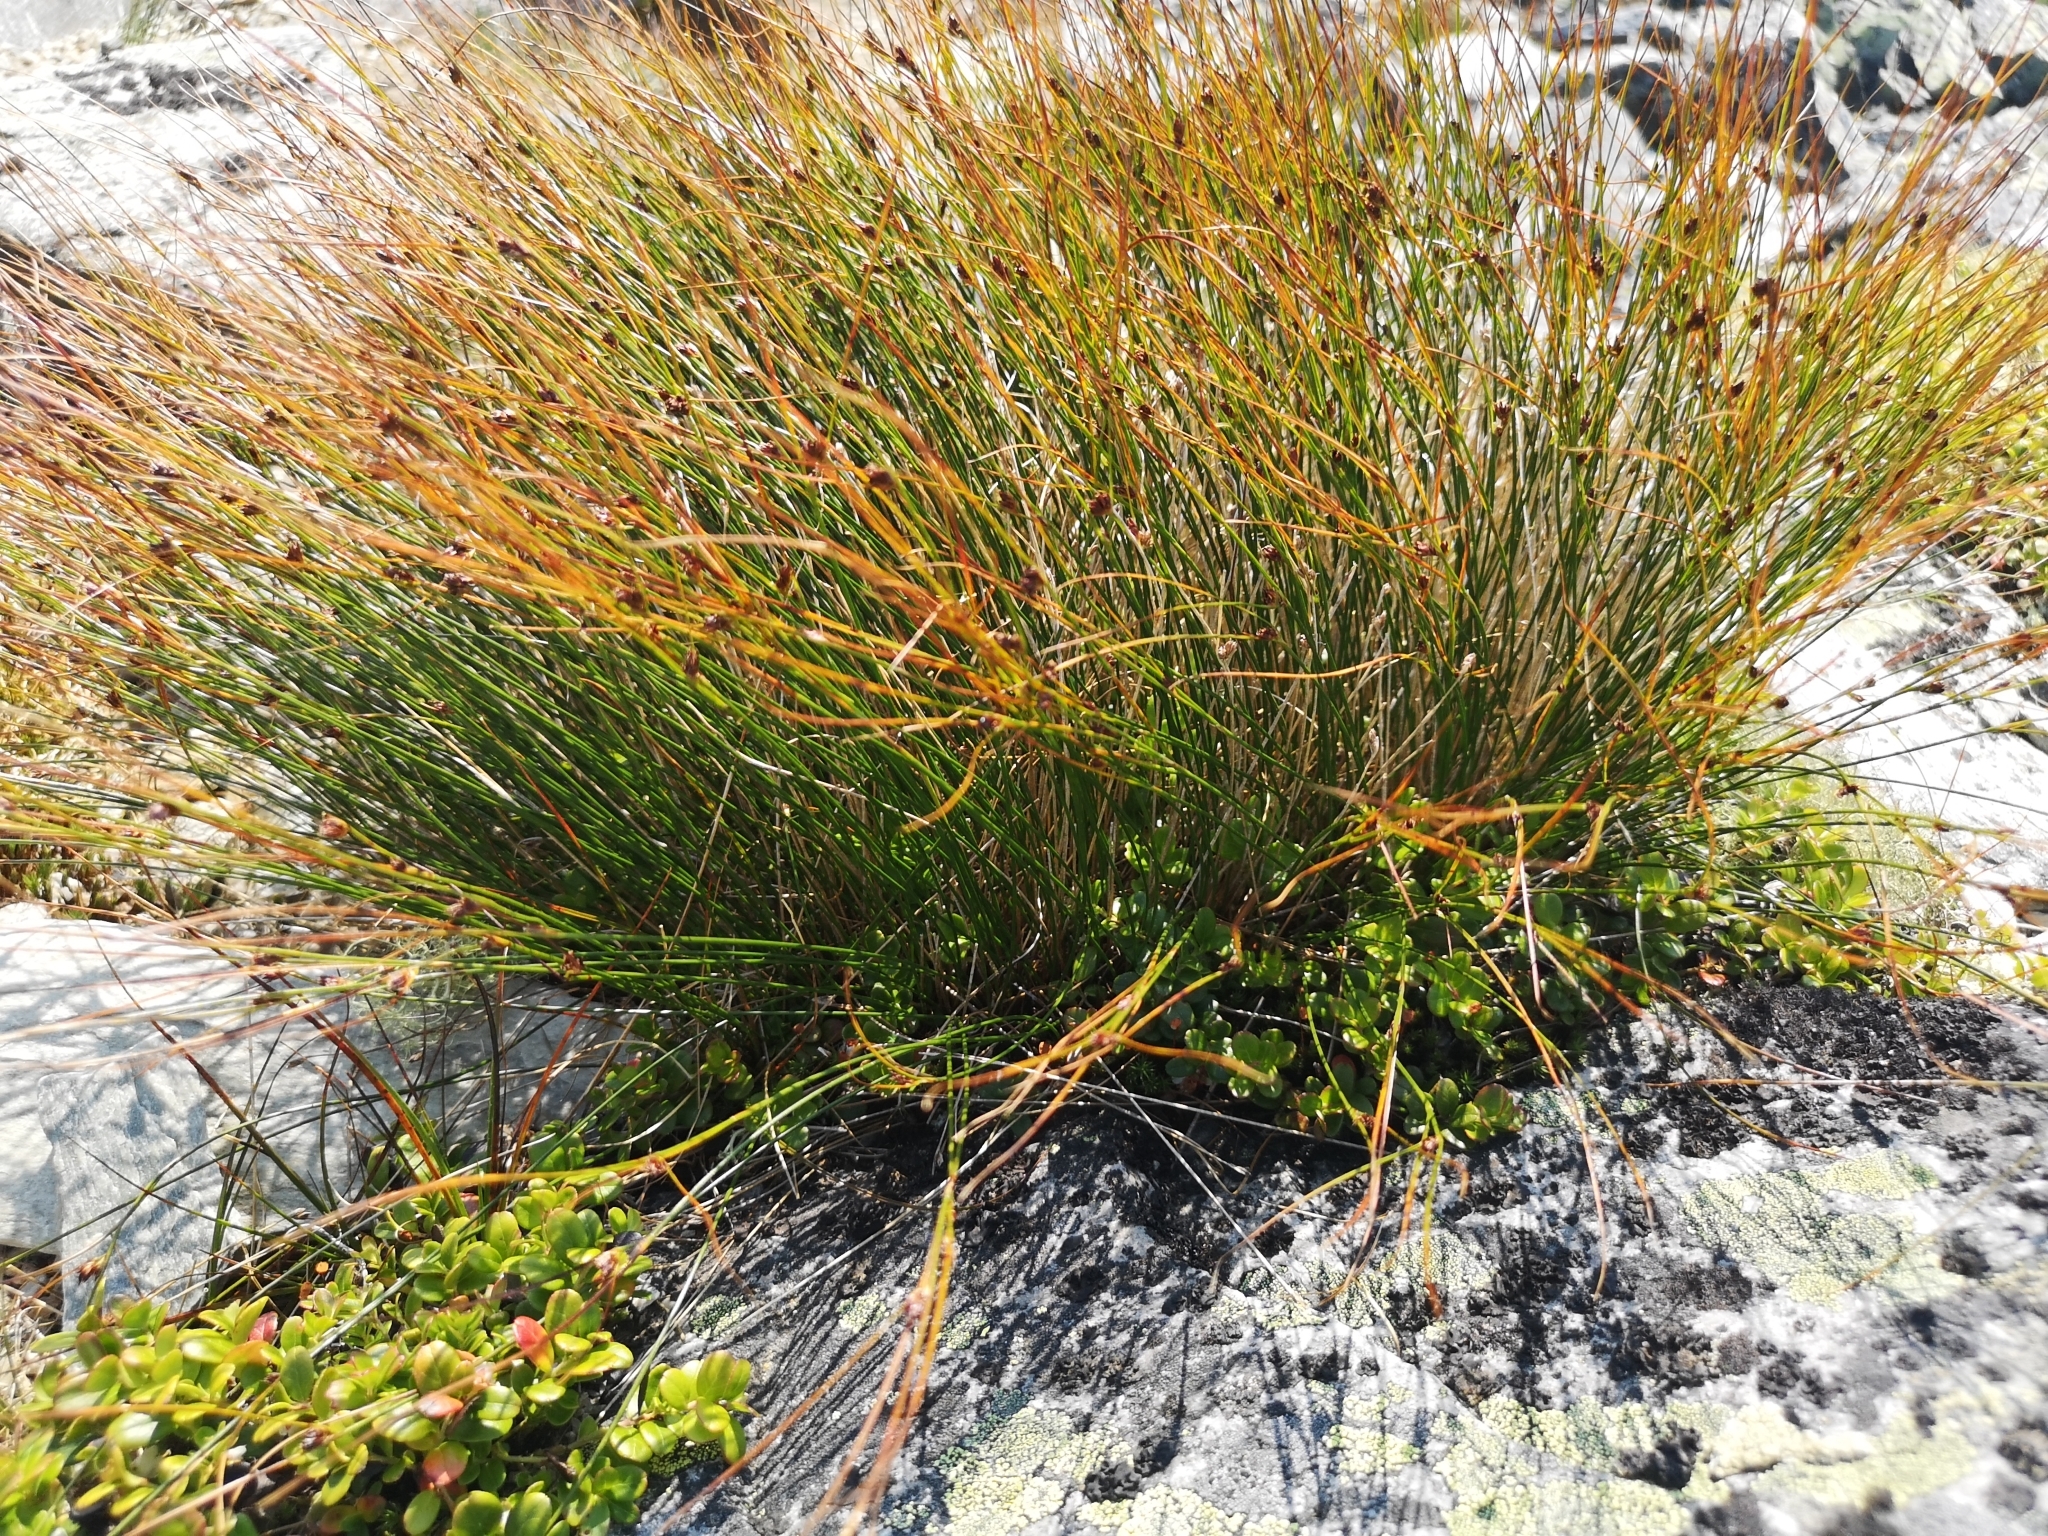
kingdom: Plantae
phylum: Tracheophyta
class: Liliopsida
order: Poales
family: Juncaceae
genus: Oreojuncus
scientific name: Oreojuncus trifidus
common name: Highland rush
